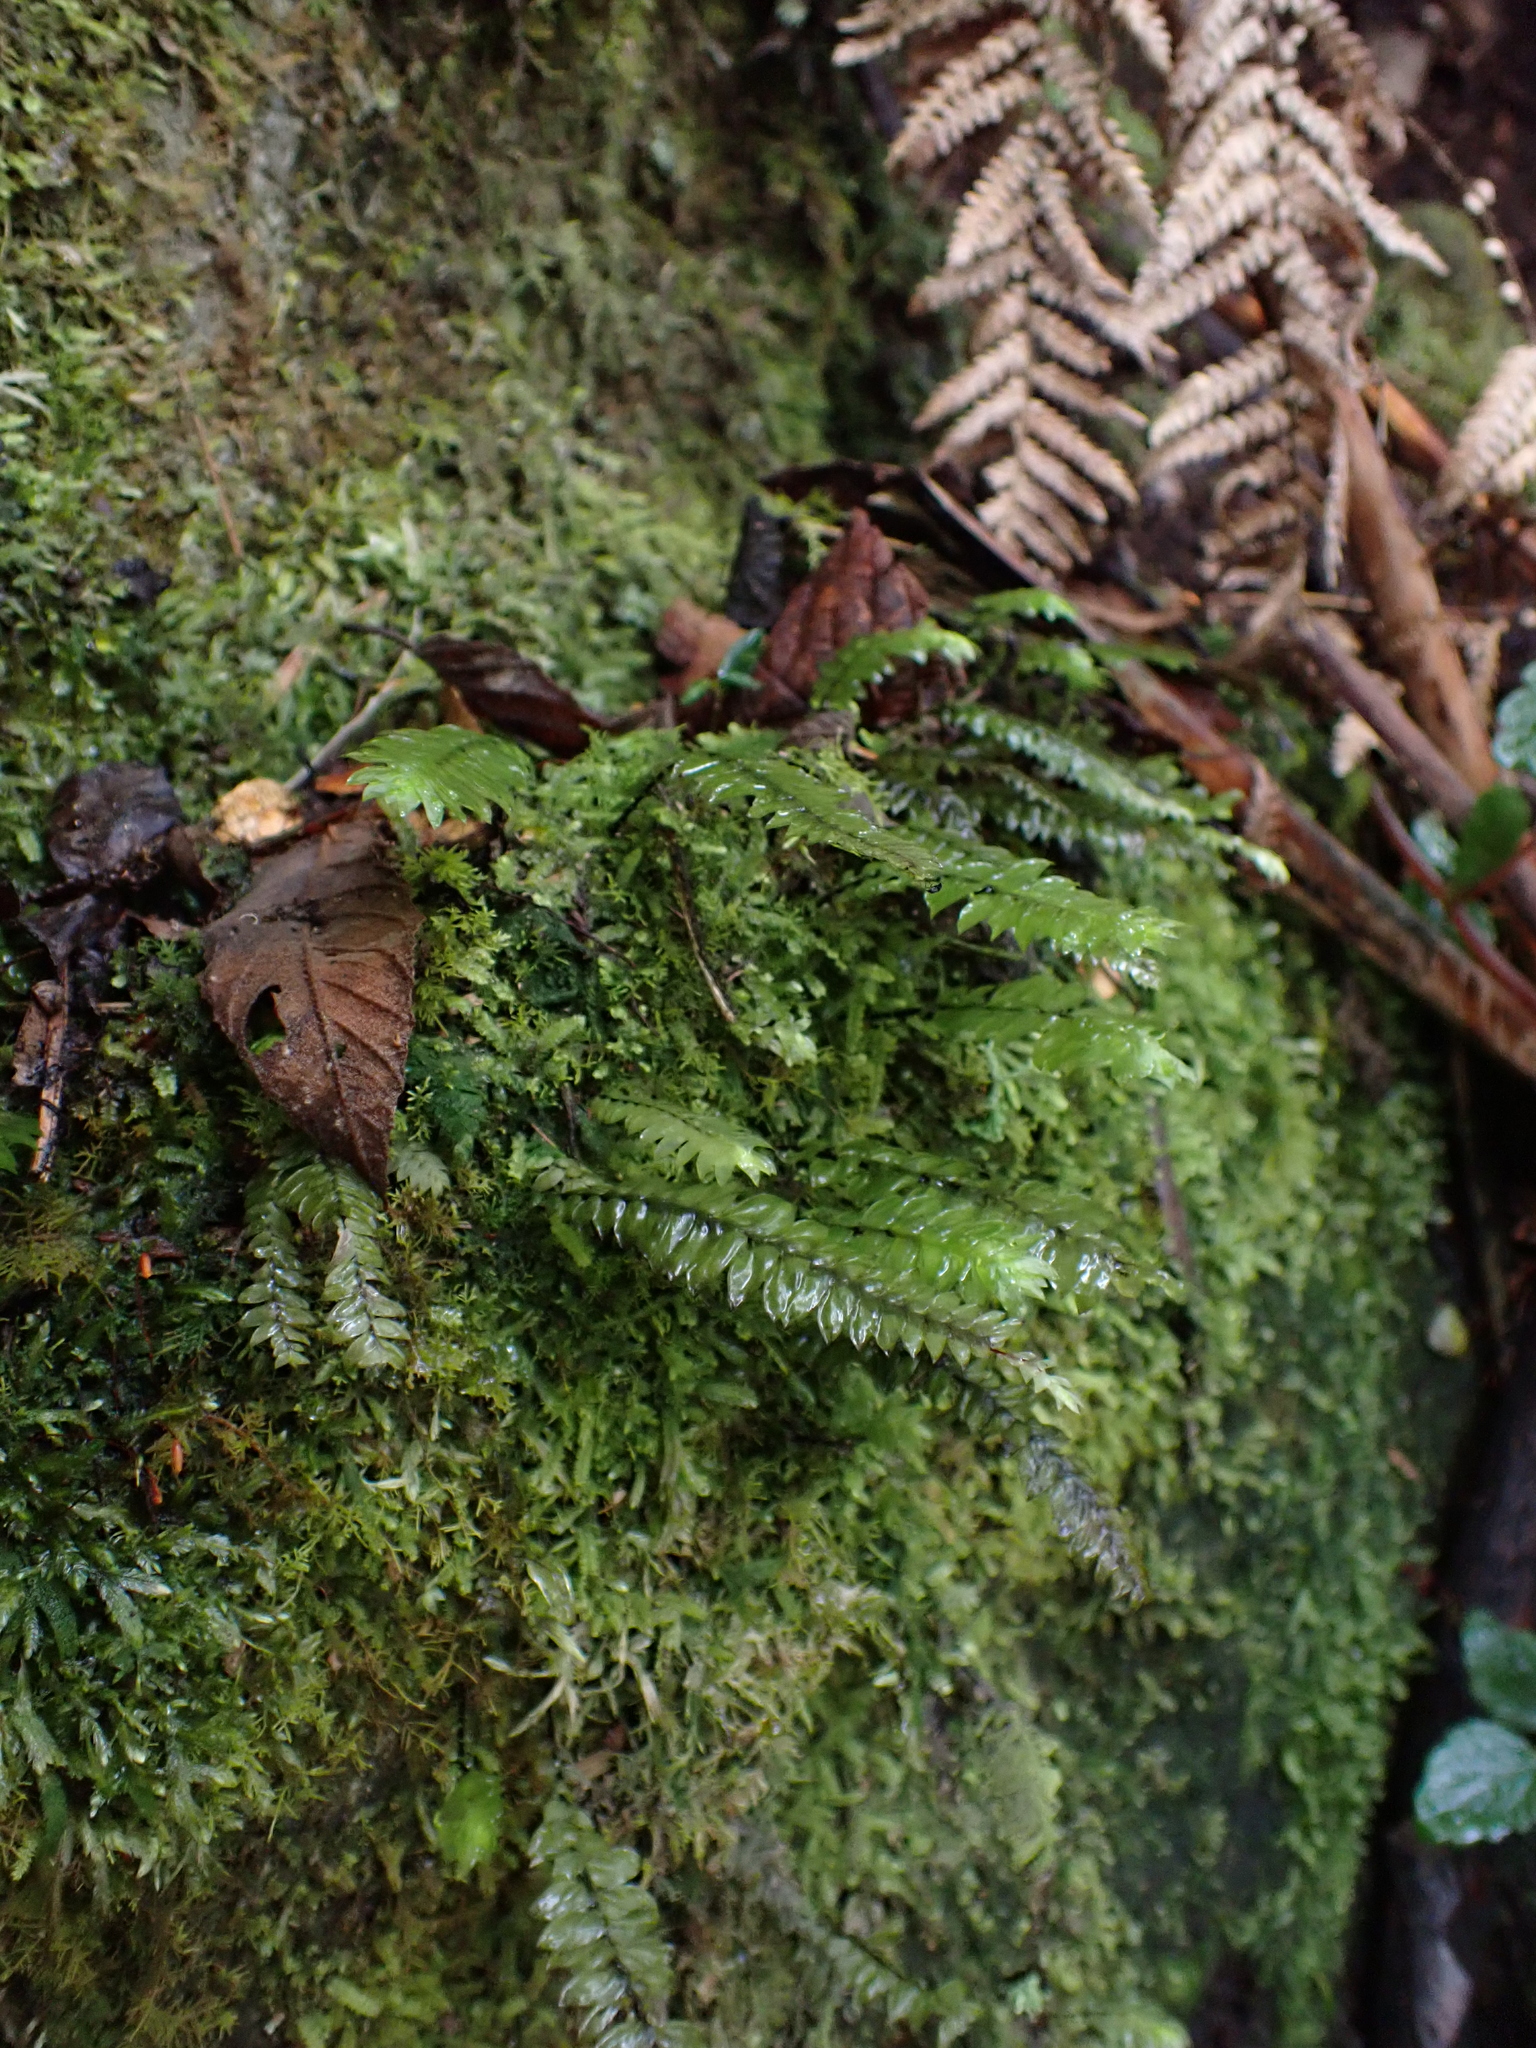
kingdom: Plantae
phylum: Bryophyta
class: Bryopsida
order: Hypopterygiales
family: Hypopterygiaceae
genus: Cyathophorum
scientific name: Cyathophorum bulbosum
